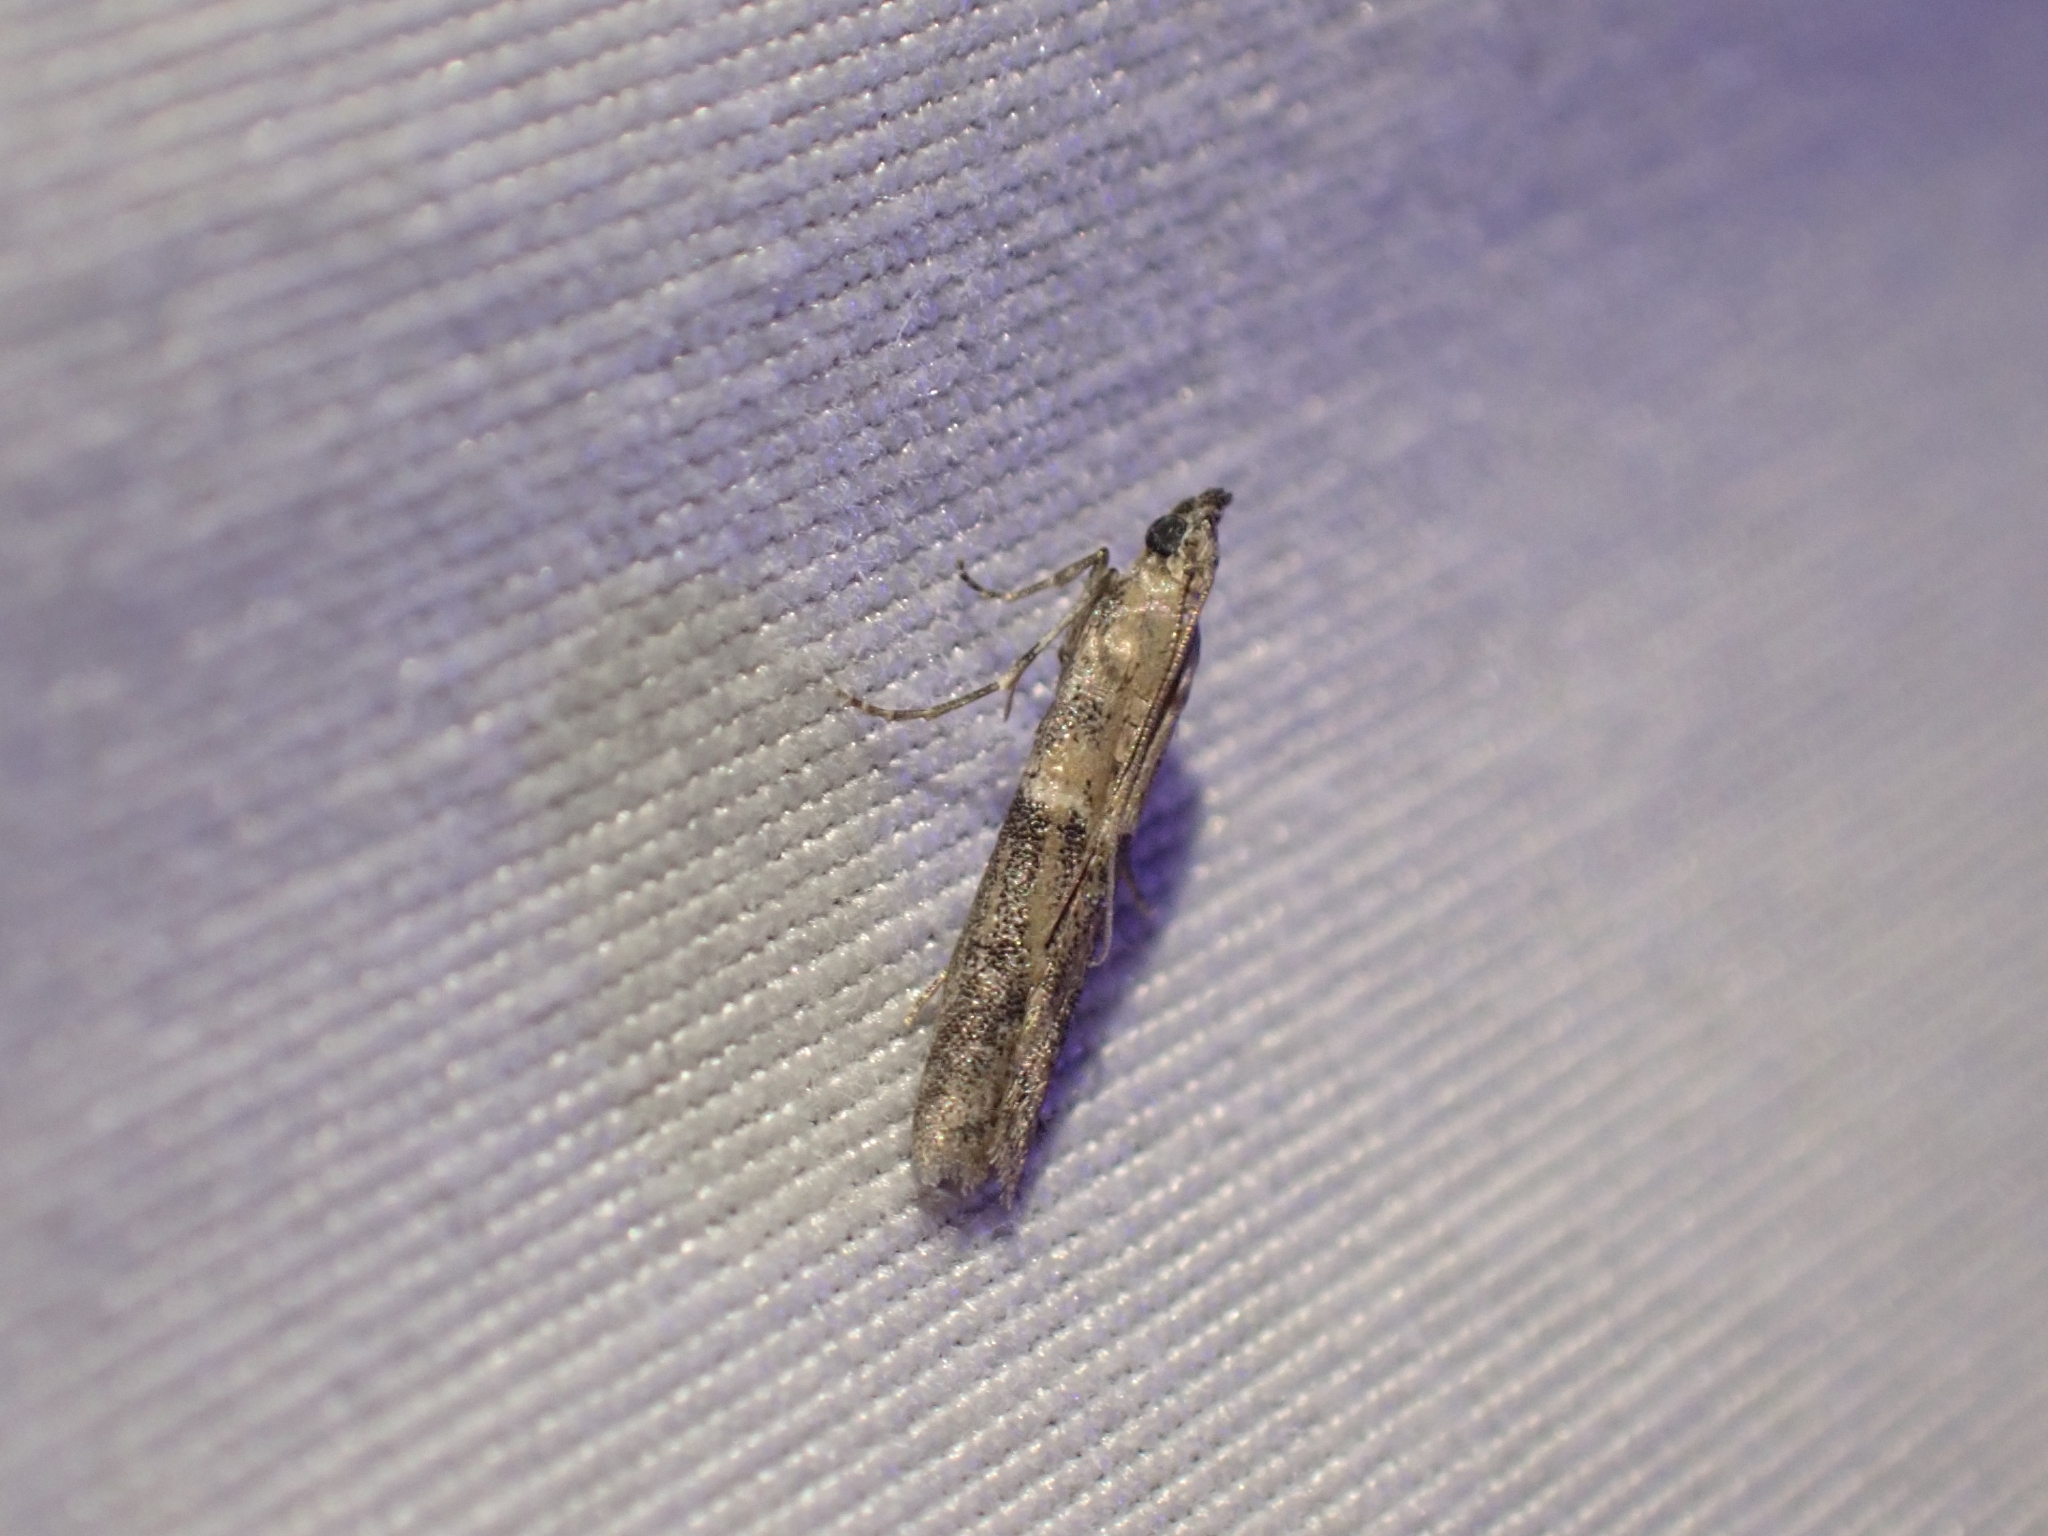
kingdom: Animalia
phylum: Arthropoda
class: Insecta
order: Lepidoptera
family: Pyralidae
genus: Ephestiodes
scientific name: Ephestiodes gilvescentella
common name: Moth
